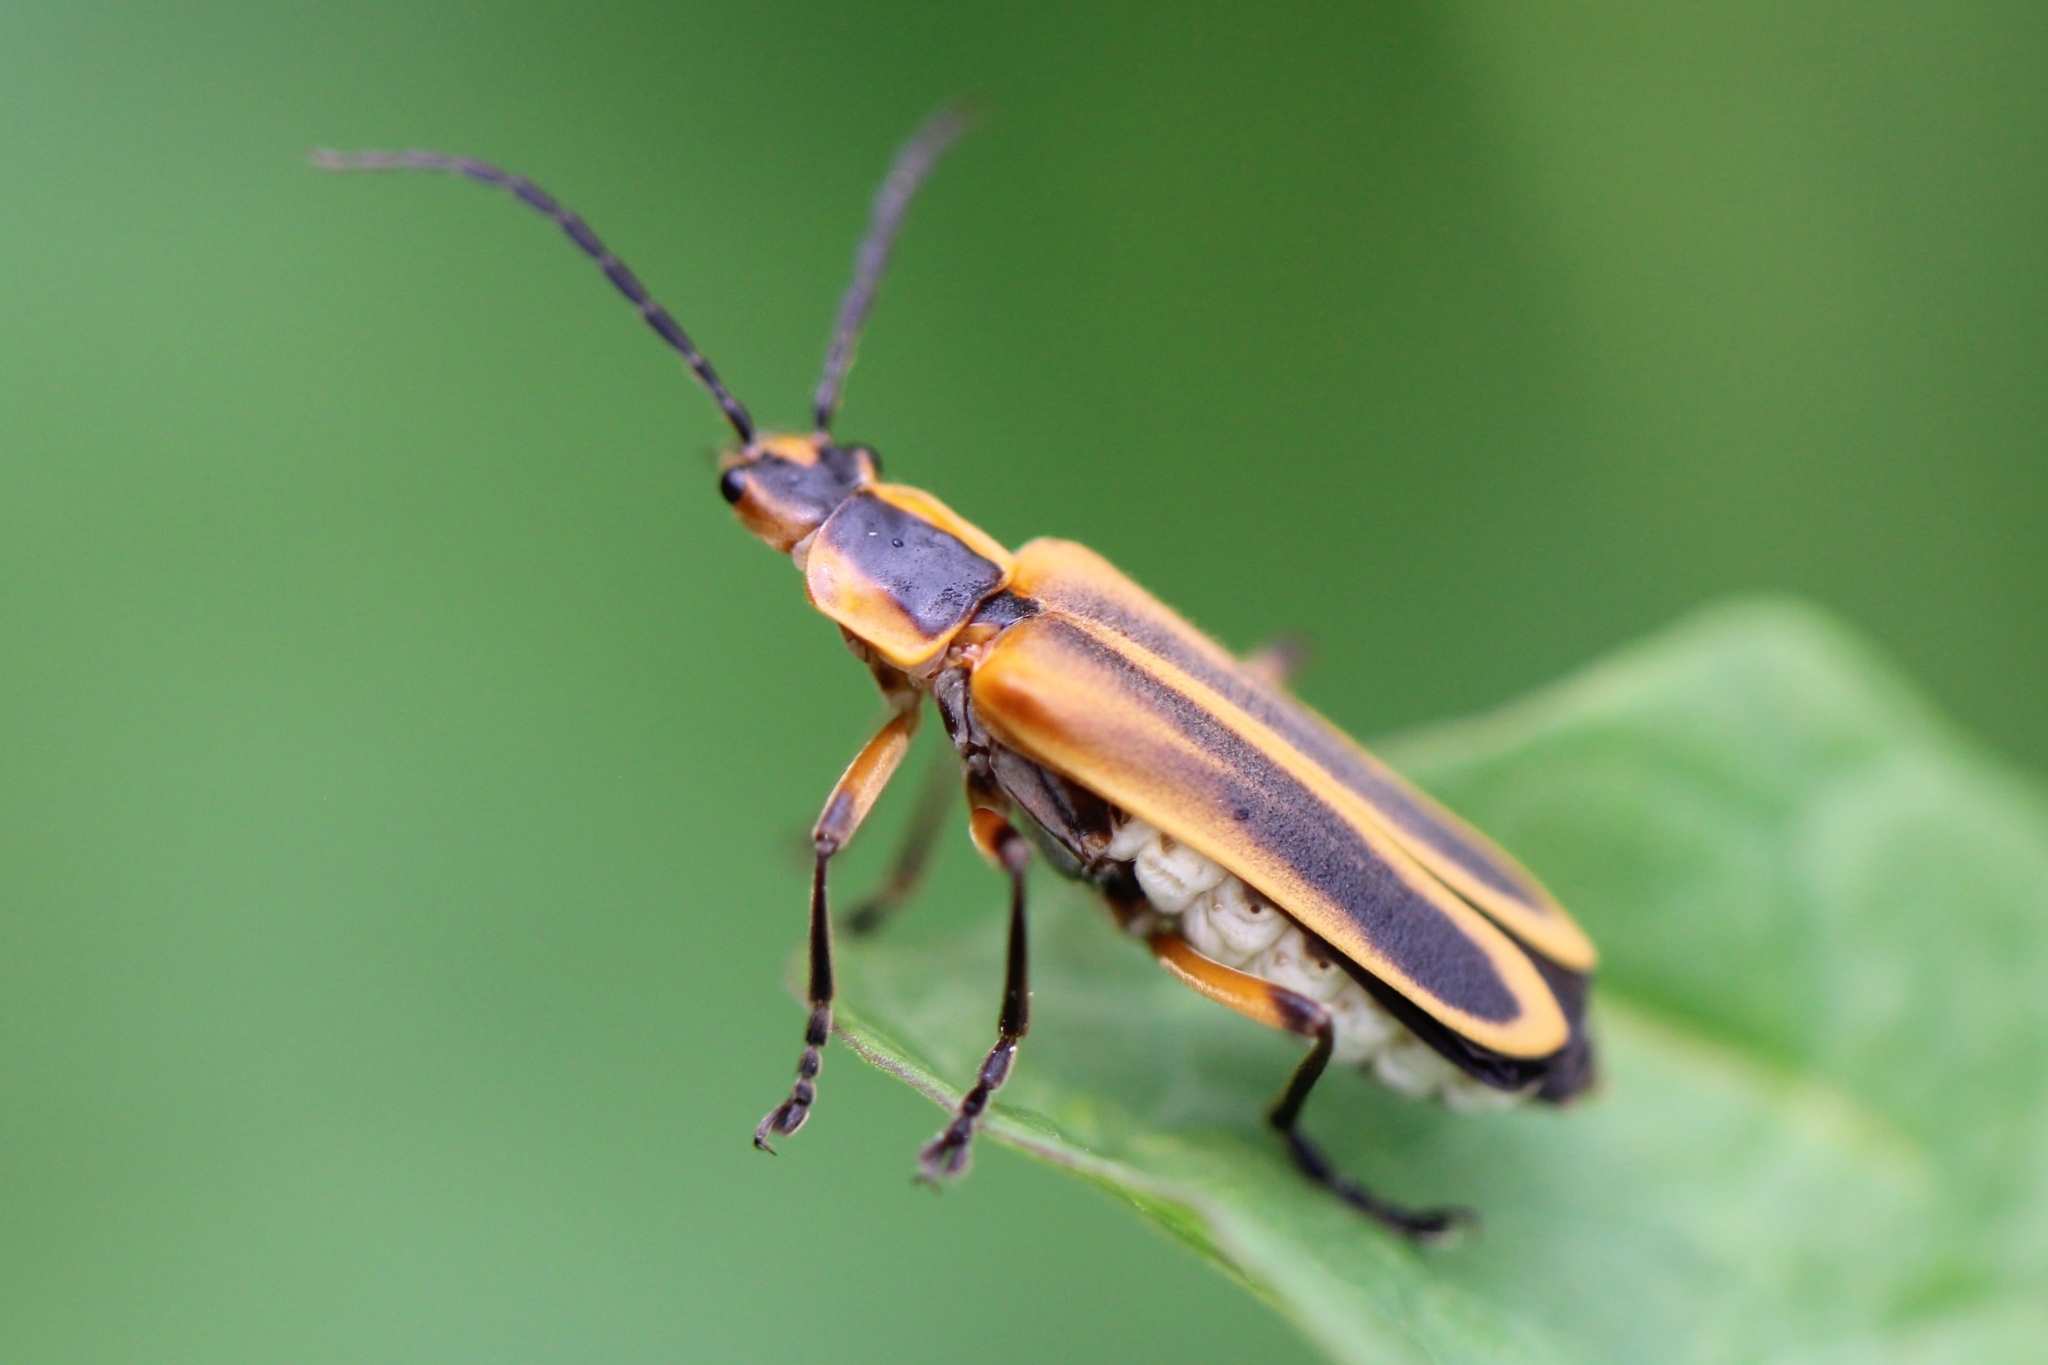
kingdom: Animalia
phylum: Arthropoda
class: Insecta
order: Coleoptera
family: Cantharidae
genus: Chauliognathus
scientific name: Chauliognathus marginatus
